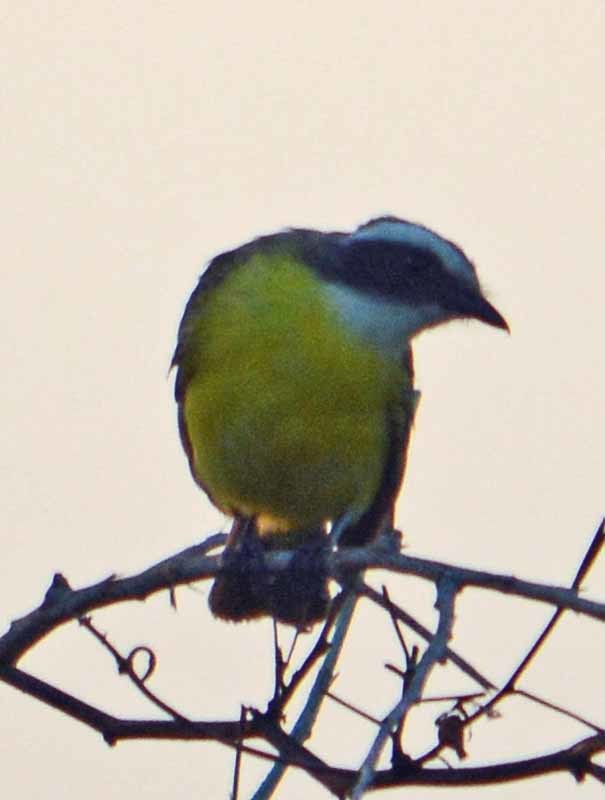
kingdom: Animalia
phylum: Chordata
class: Aves
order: Passeriformes
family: Tyrannidae
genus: Myiozetetes
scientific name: Myiozetetes similis
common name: Social flycatcher
